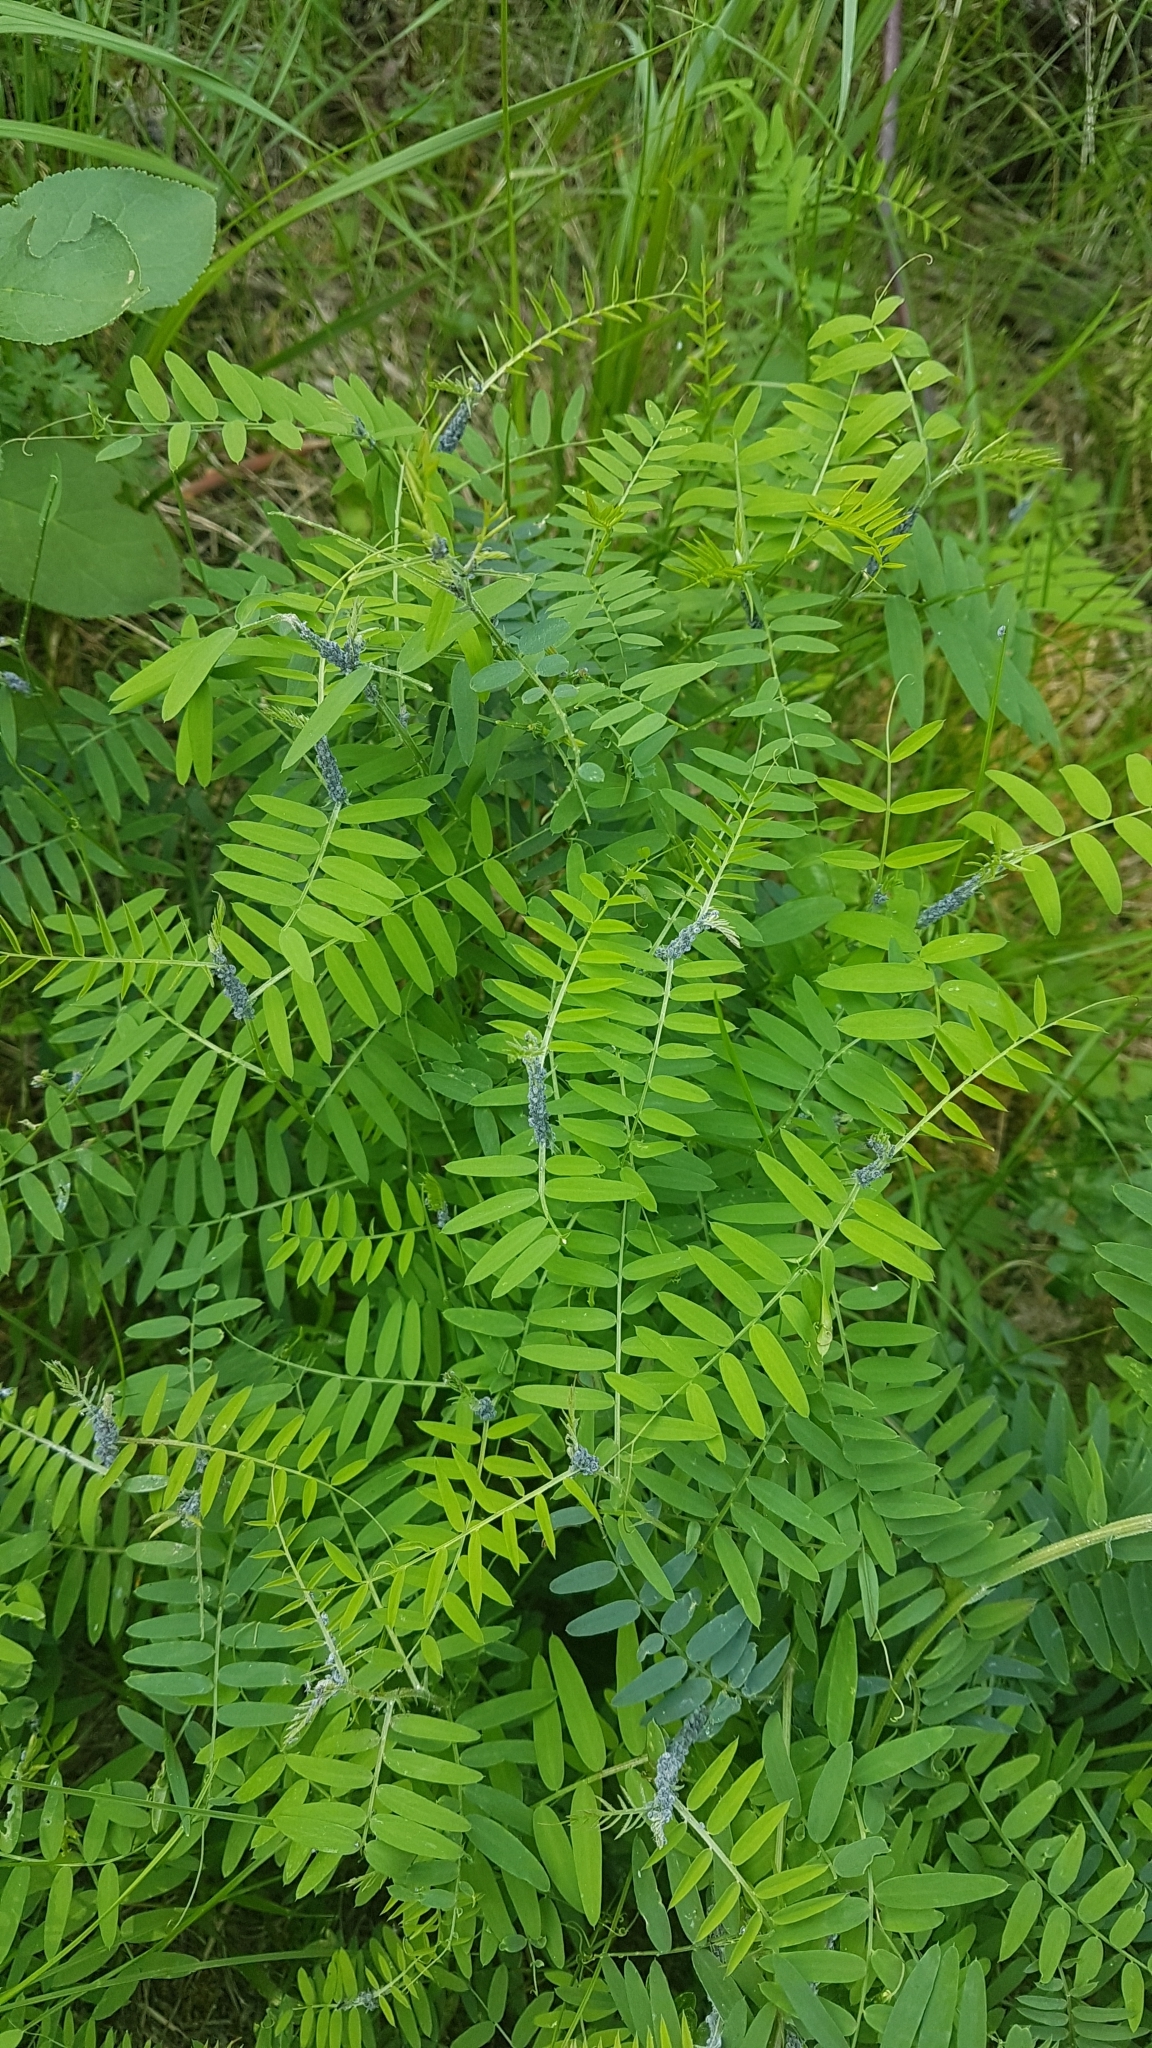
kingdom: Plantae
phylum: Tracheophyta
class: Magnoliopsida
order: Fabales
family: Fabaceae
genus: Vicia
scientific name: Vicia cracca
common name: Bird vetch
